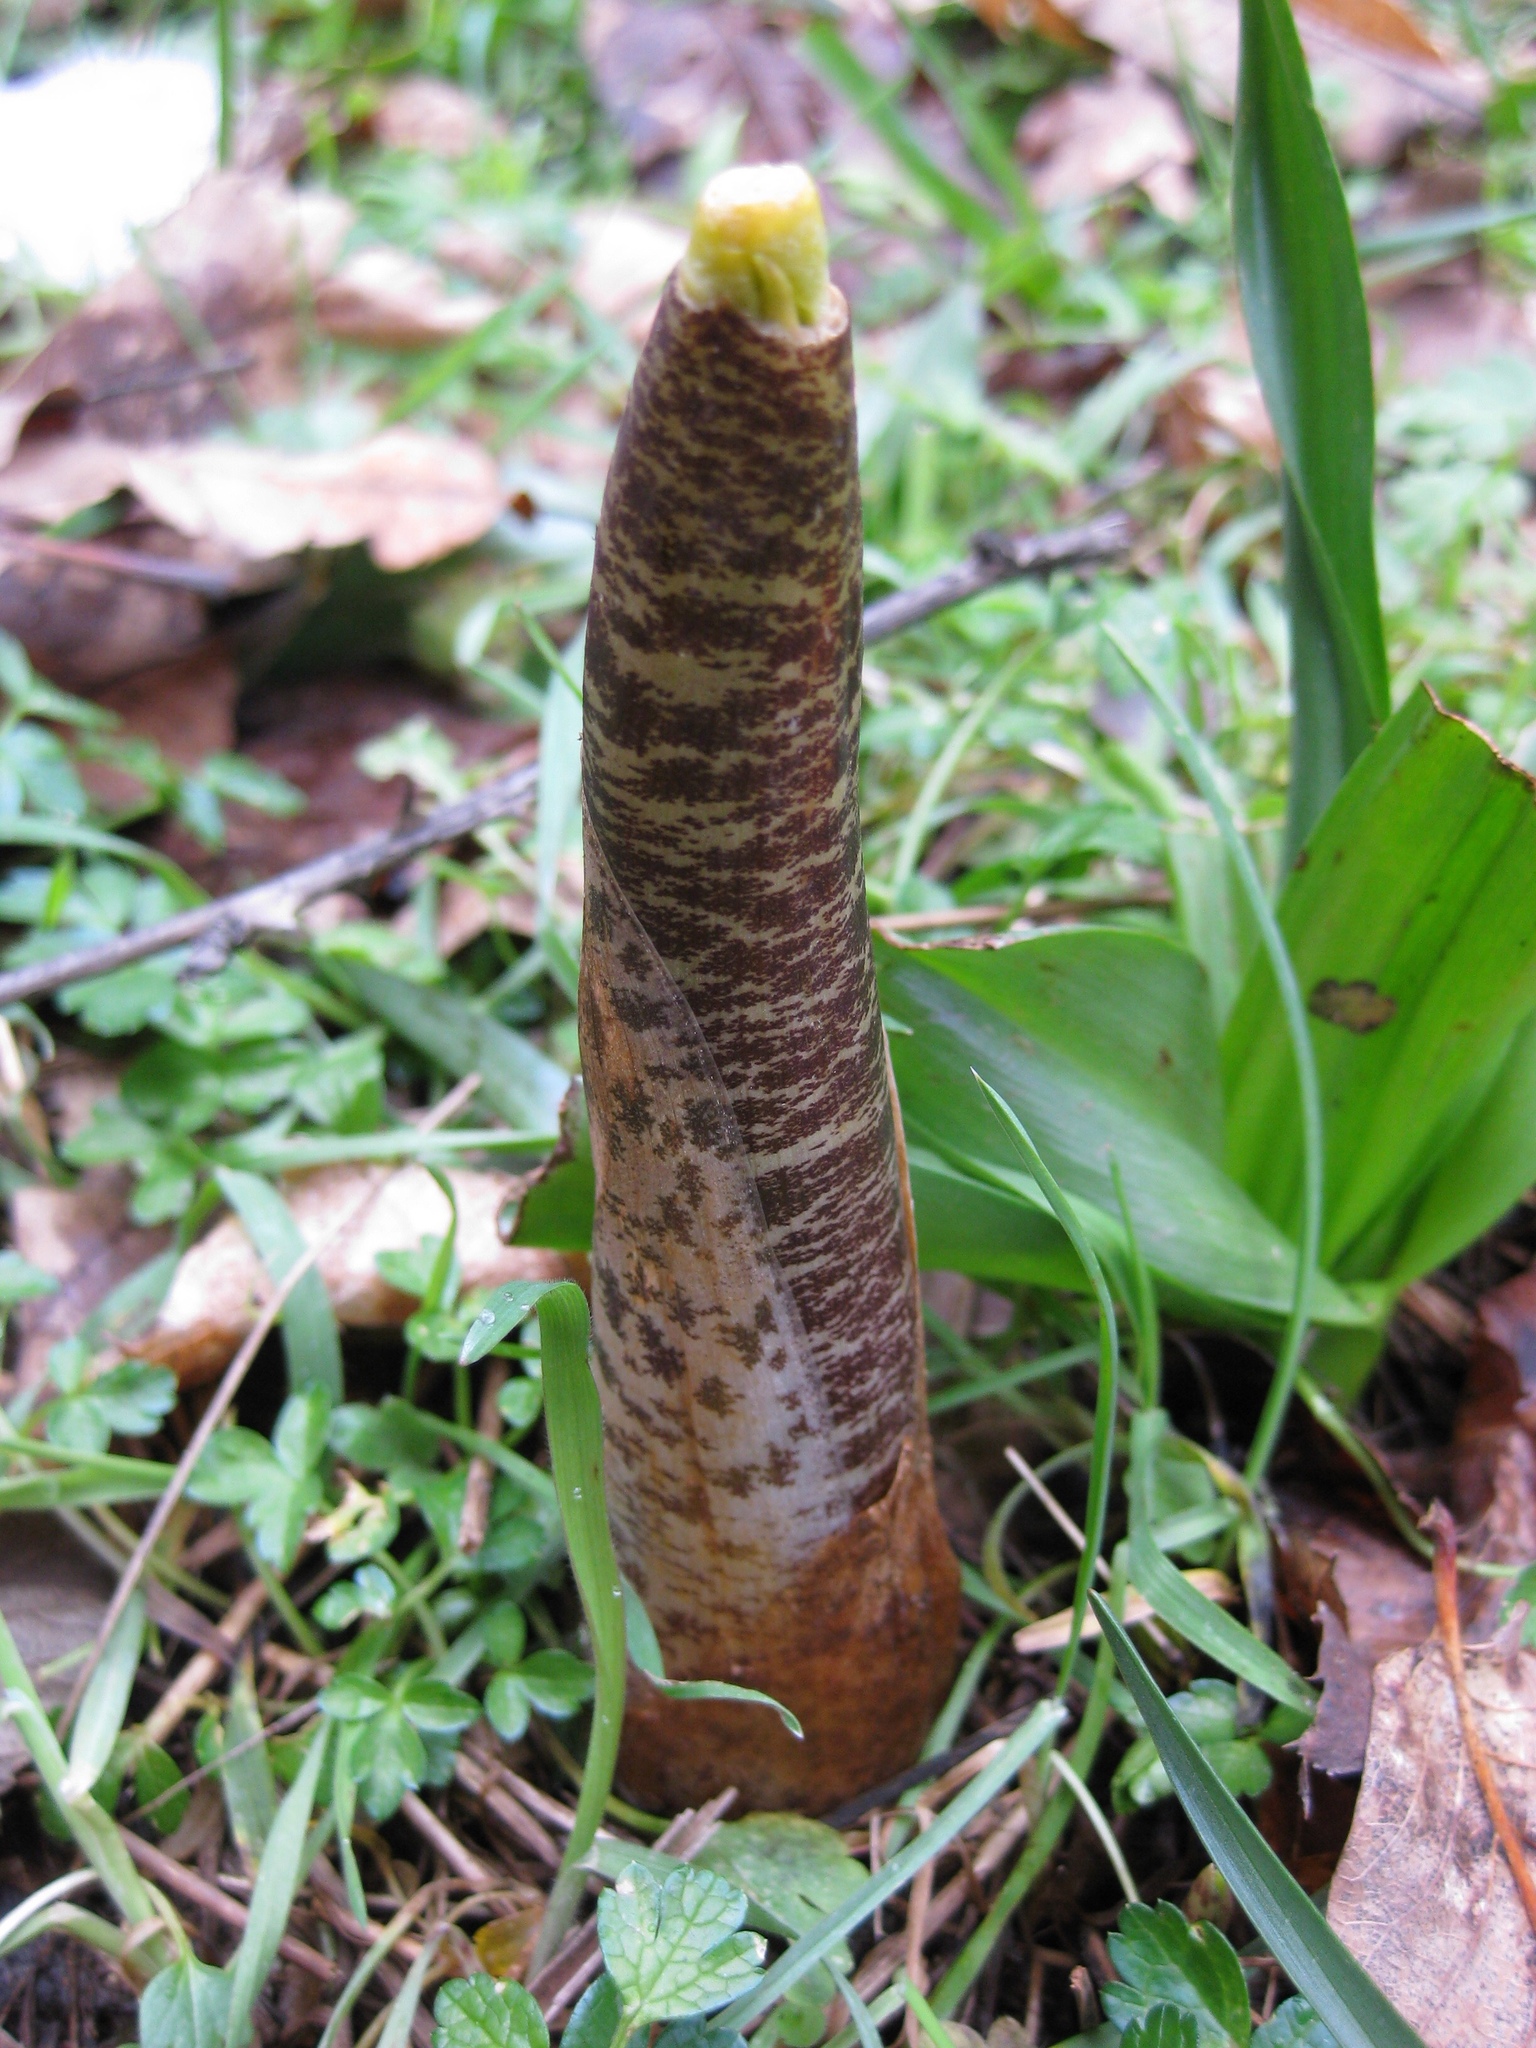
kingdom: Plantae
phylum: Tracheophyta
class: Liliopsida
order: Alismatales
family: Araceae
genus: Dracunculus
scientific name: Dracunculus vulgaris
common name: Dragon arum
